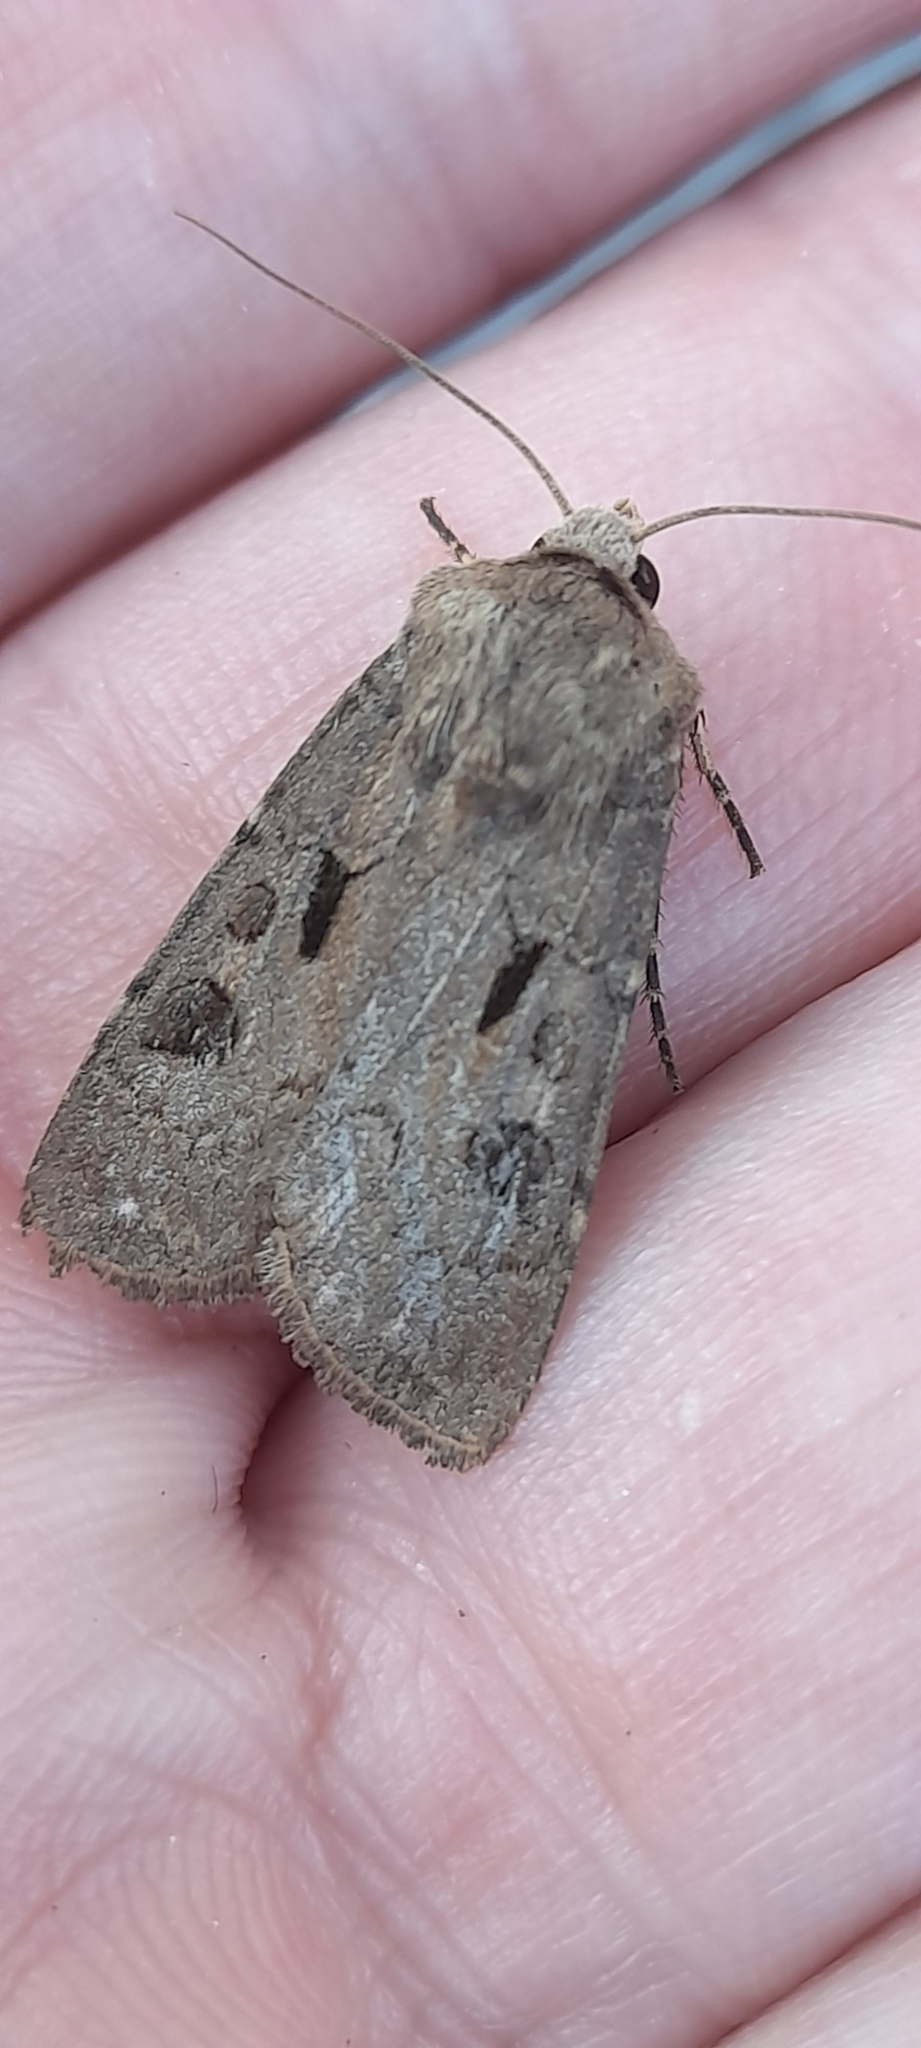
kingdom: Animalia
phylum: Arthropoda
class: Insecta
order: Lepidoptera
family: Noctuidae
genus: Agrotis
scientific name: Agrotis exclamationis
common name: Heart and dart
